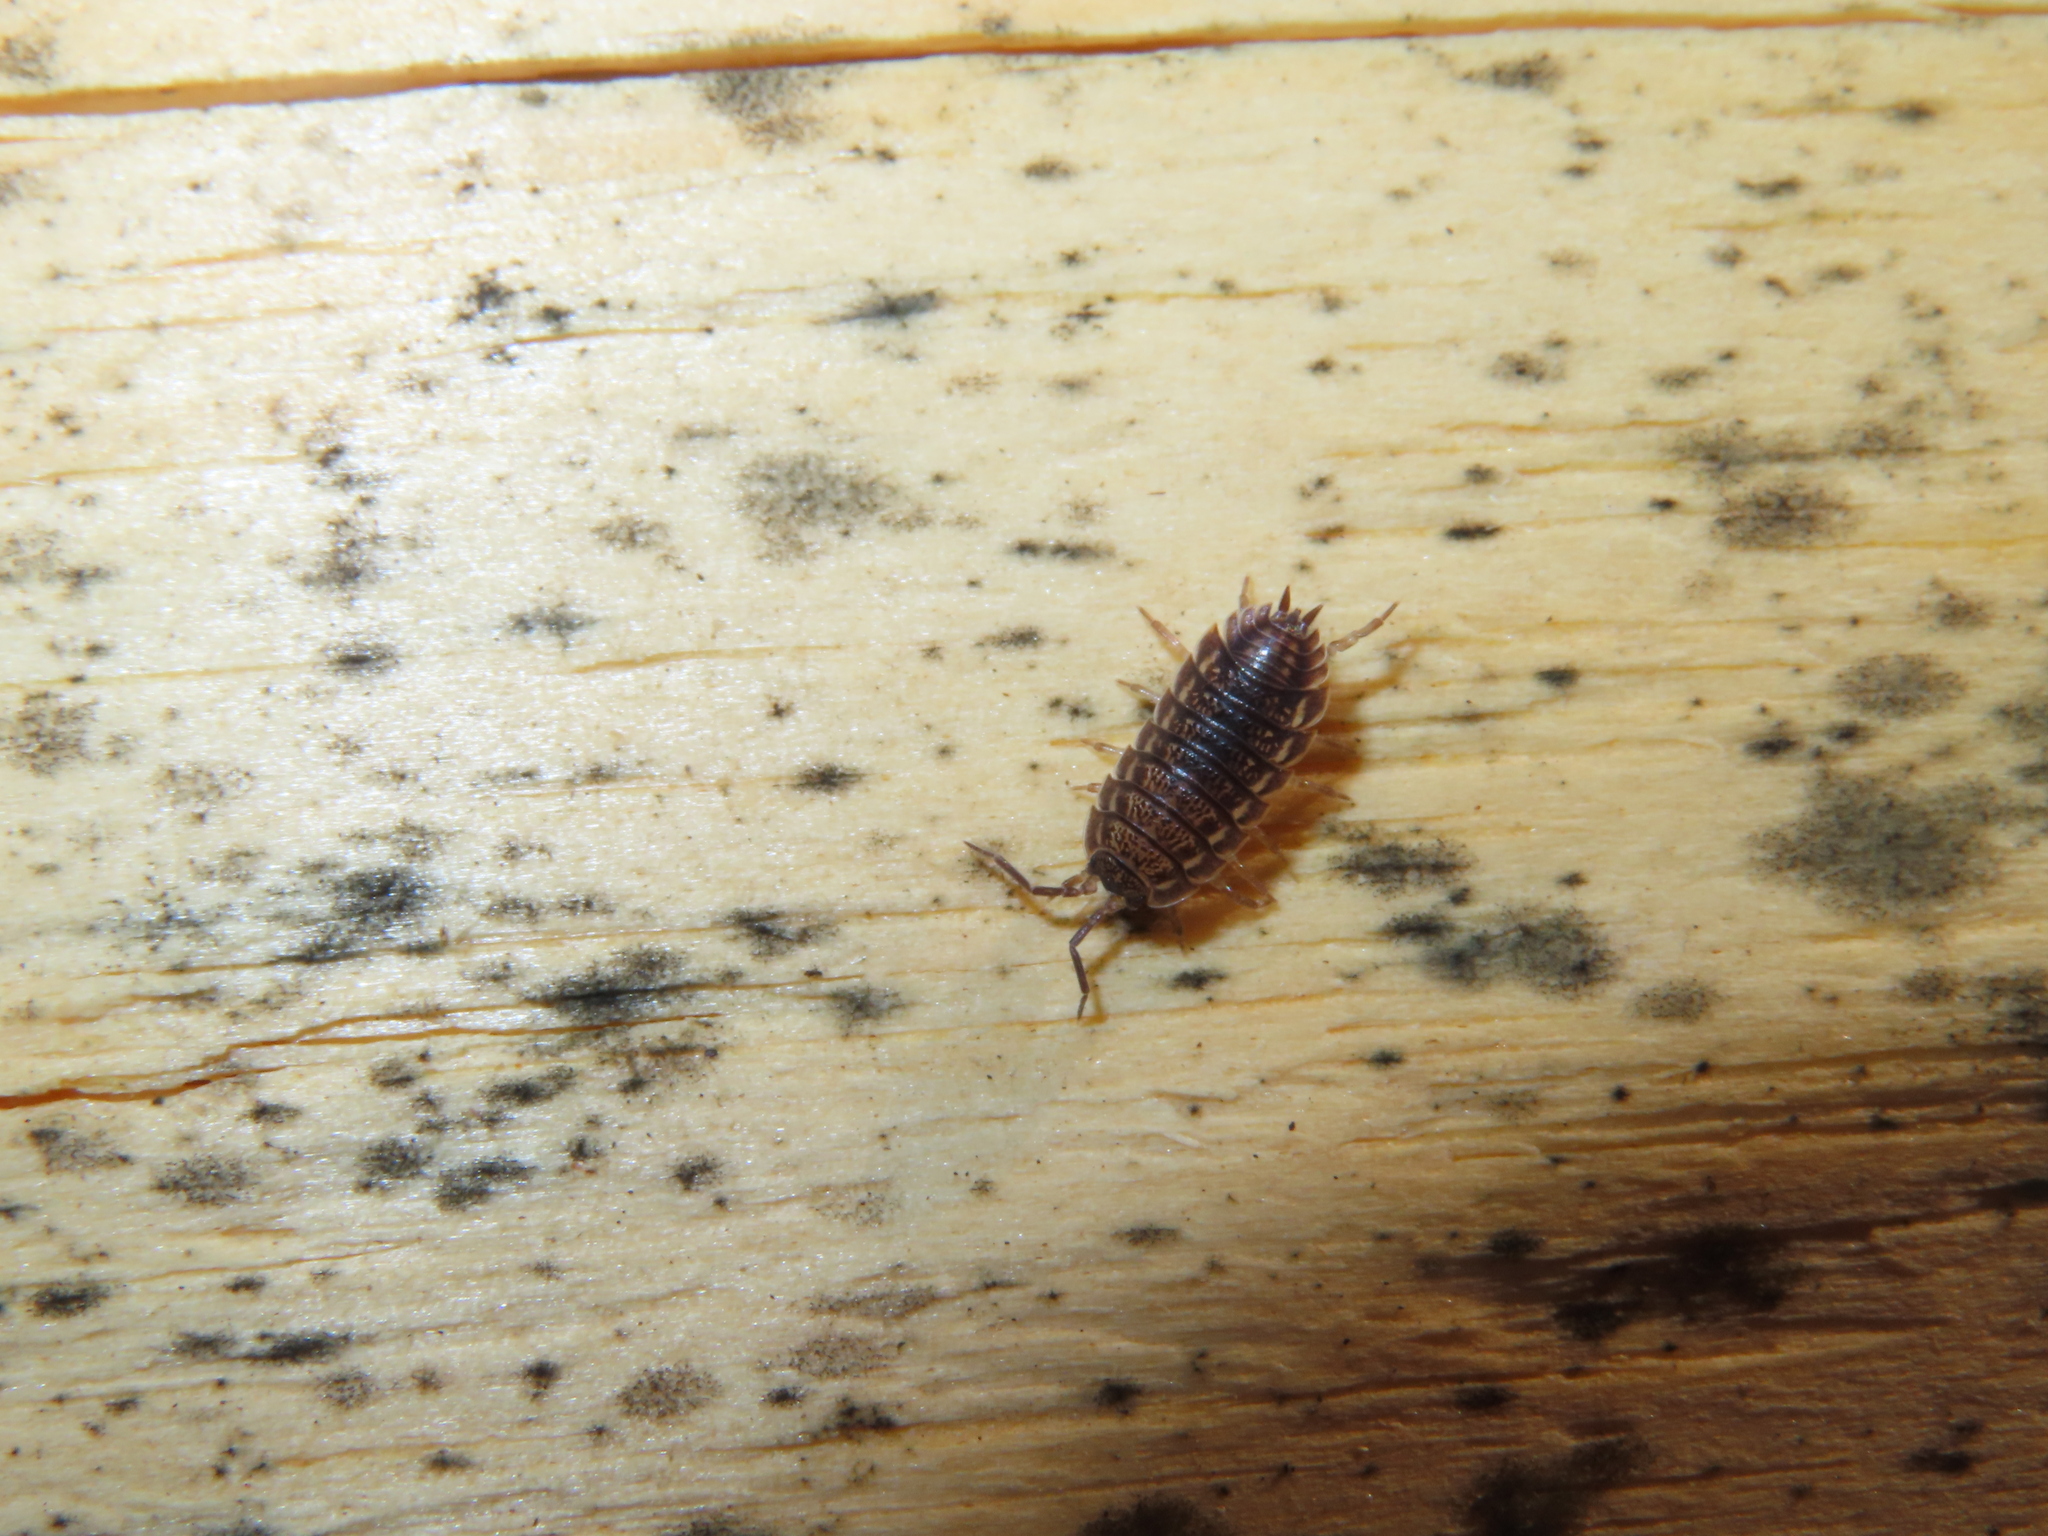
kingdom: Animalia
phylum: Arthropoda
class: Malacostraca
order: Isopoda
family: Trachelipodidae
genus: Trachelipus
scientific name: Trachelipus rathkii
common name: Isopod
